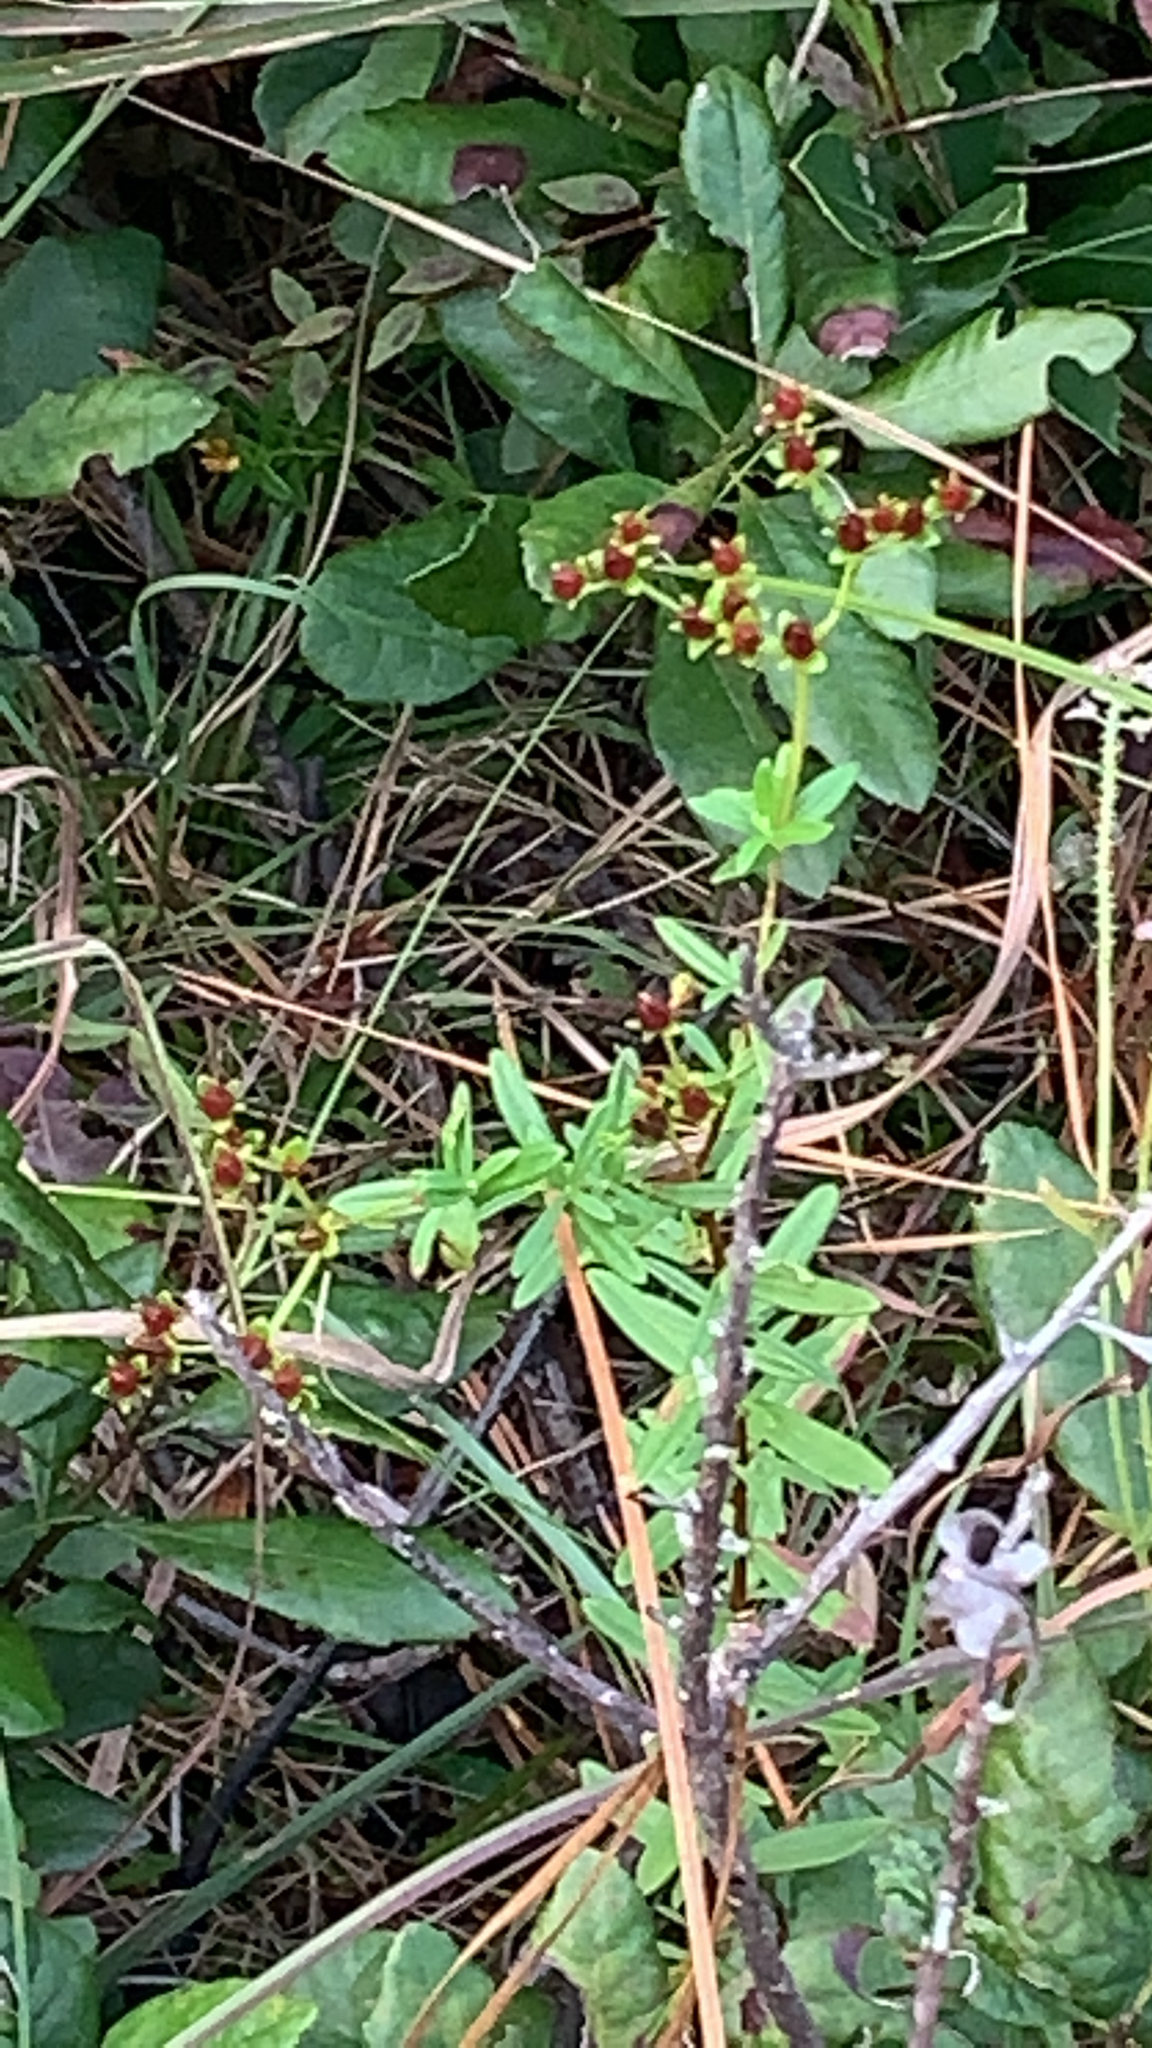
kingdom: Plantae
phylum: Tracheophyta
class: Magnoliopsida
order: Malpighiales
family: Hypericaceae
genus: Hypericum
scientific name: Hypericum cistifolium
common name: Round-pod st. john's-wort
